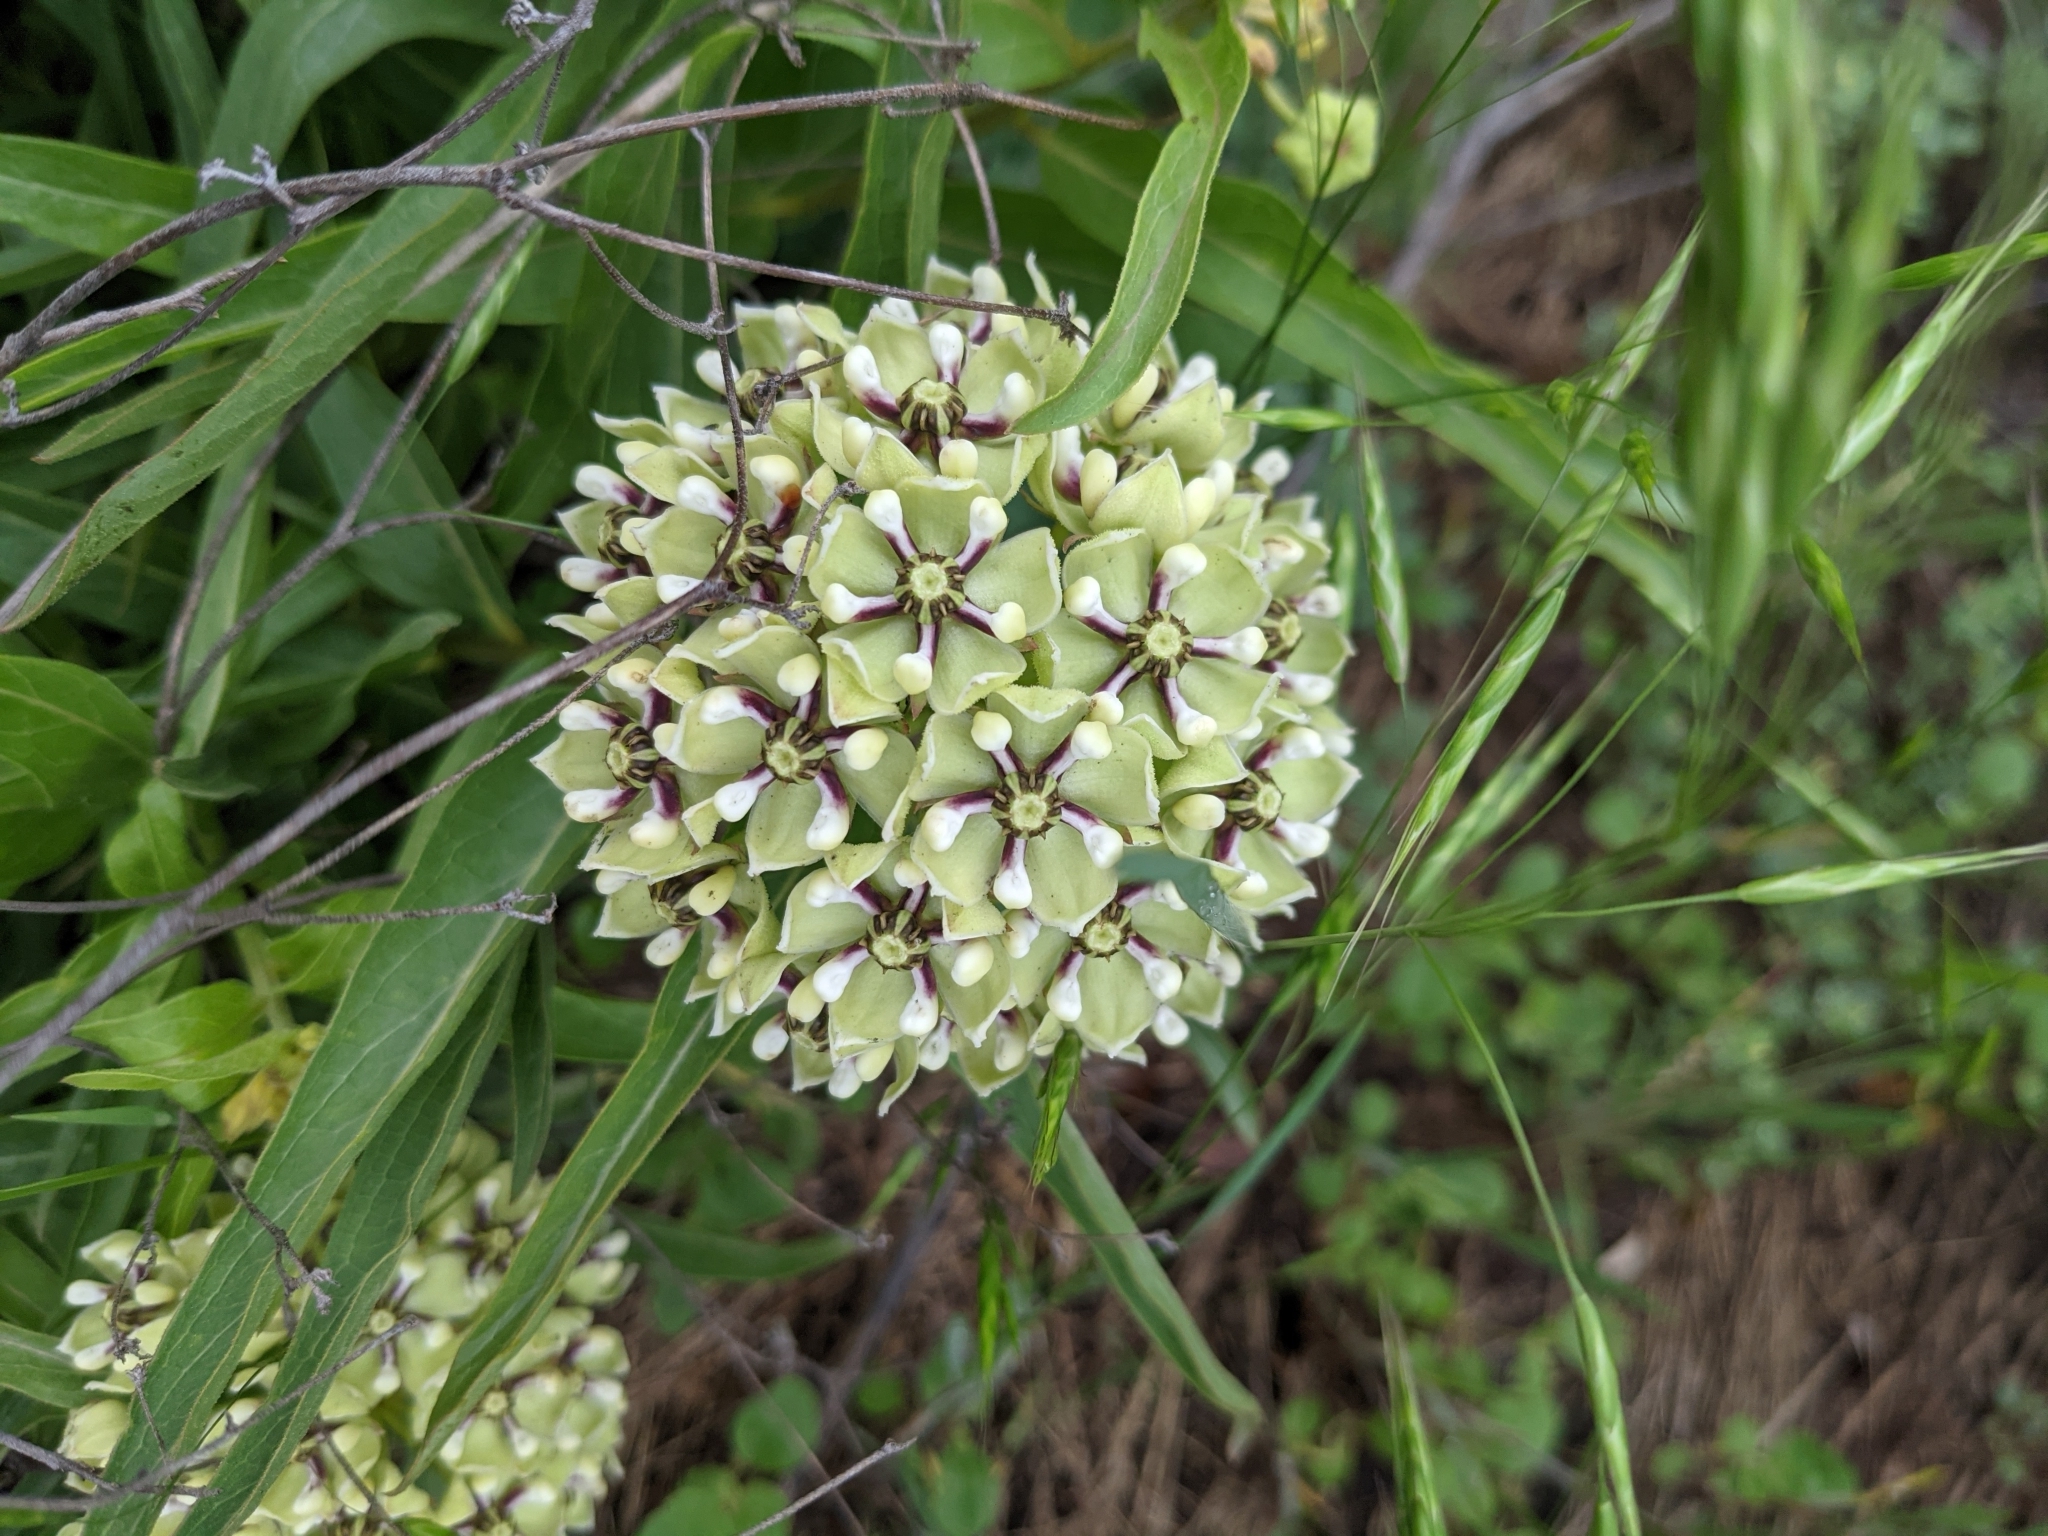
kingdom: Plantae
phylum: Tracheophyta
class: Magnoliopsida
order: Gentianales
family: Apocynaceae
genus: Asclepias
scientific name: Asclepias asperula
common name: Antelope horns
